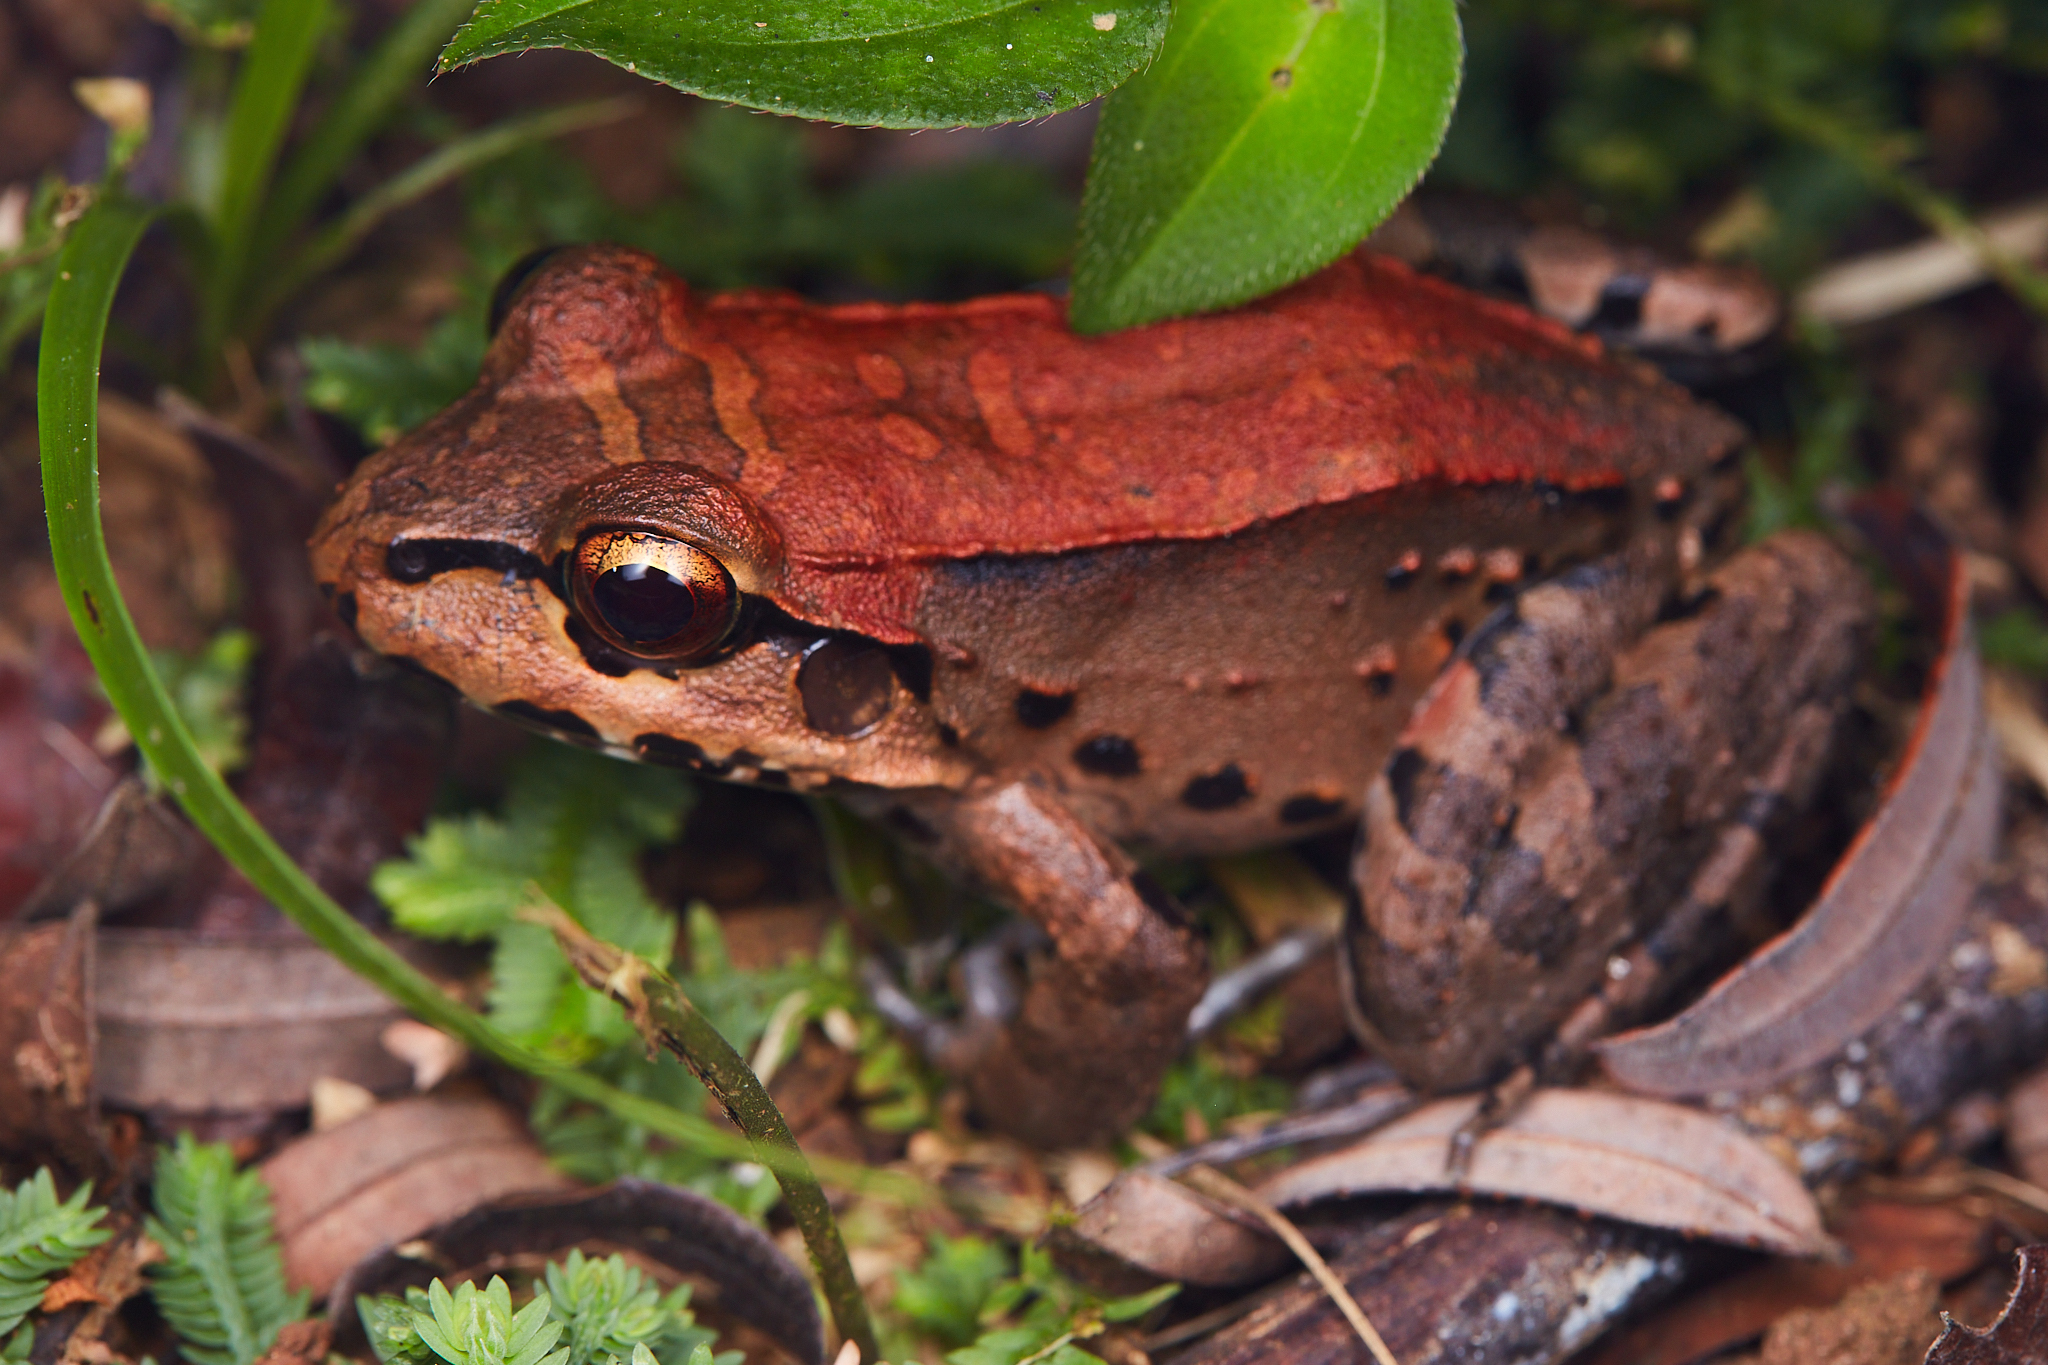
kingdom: Animalia
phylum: Chordata
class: Amphibia
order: Anura
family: Leptodactylidae
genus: Leptodactylus
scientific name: Leptodactylus savagei
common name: Savage's thin-toed frog
